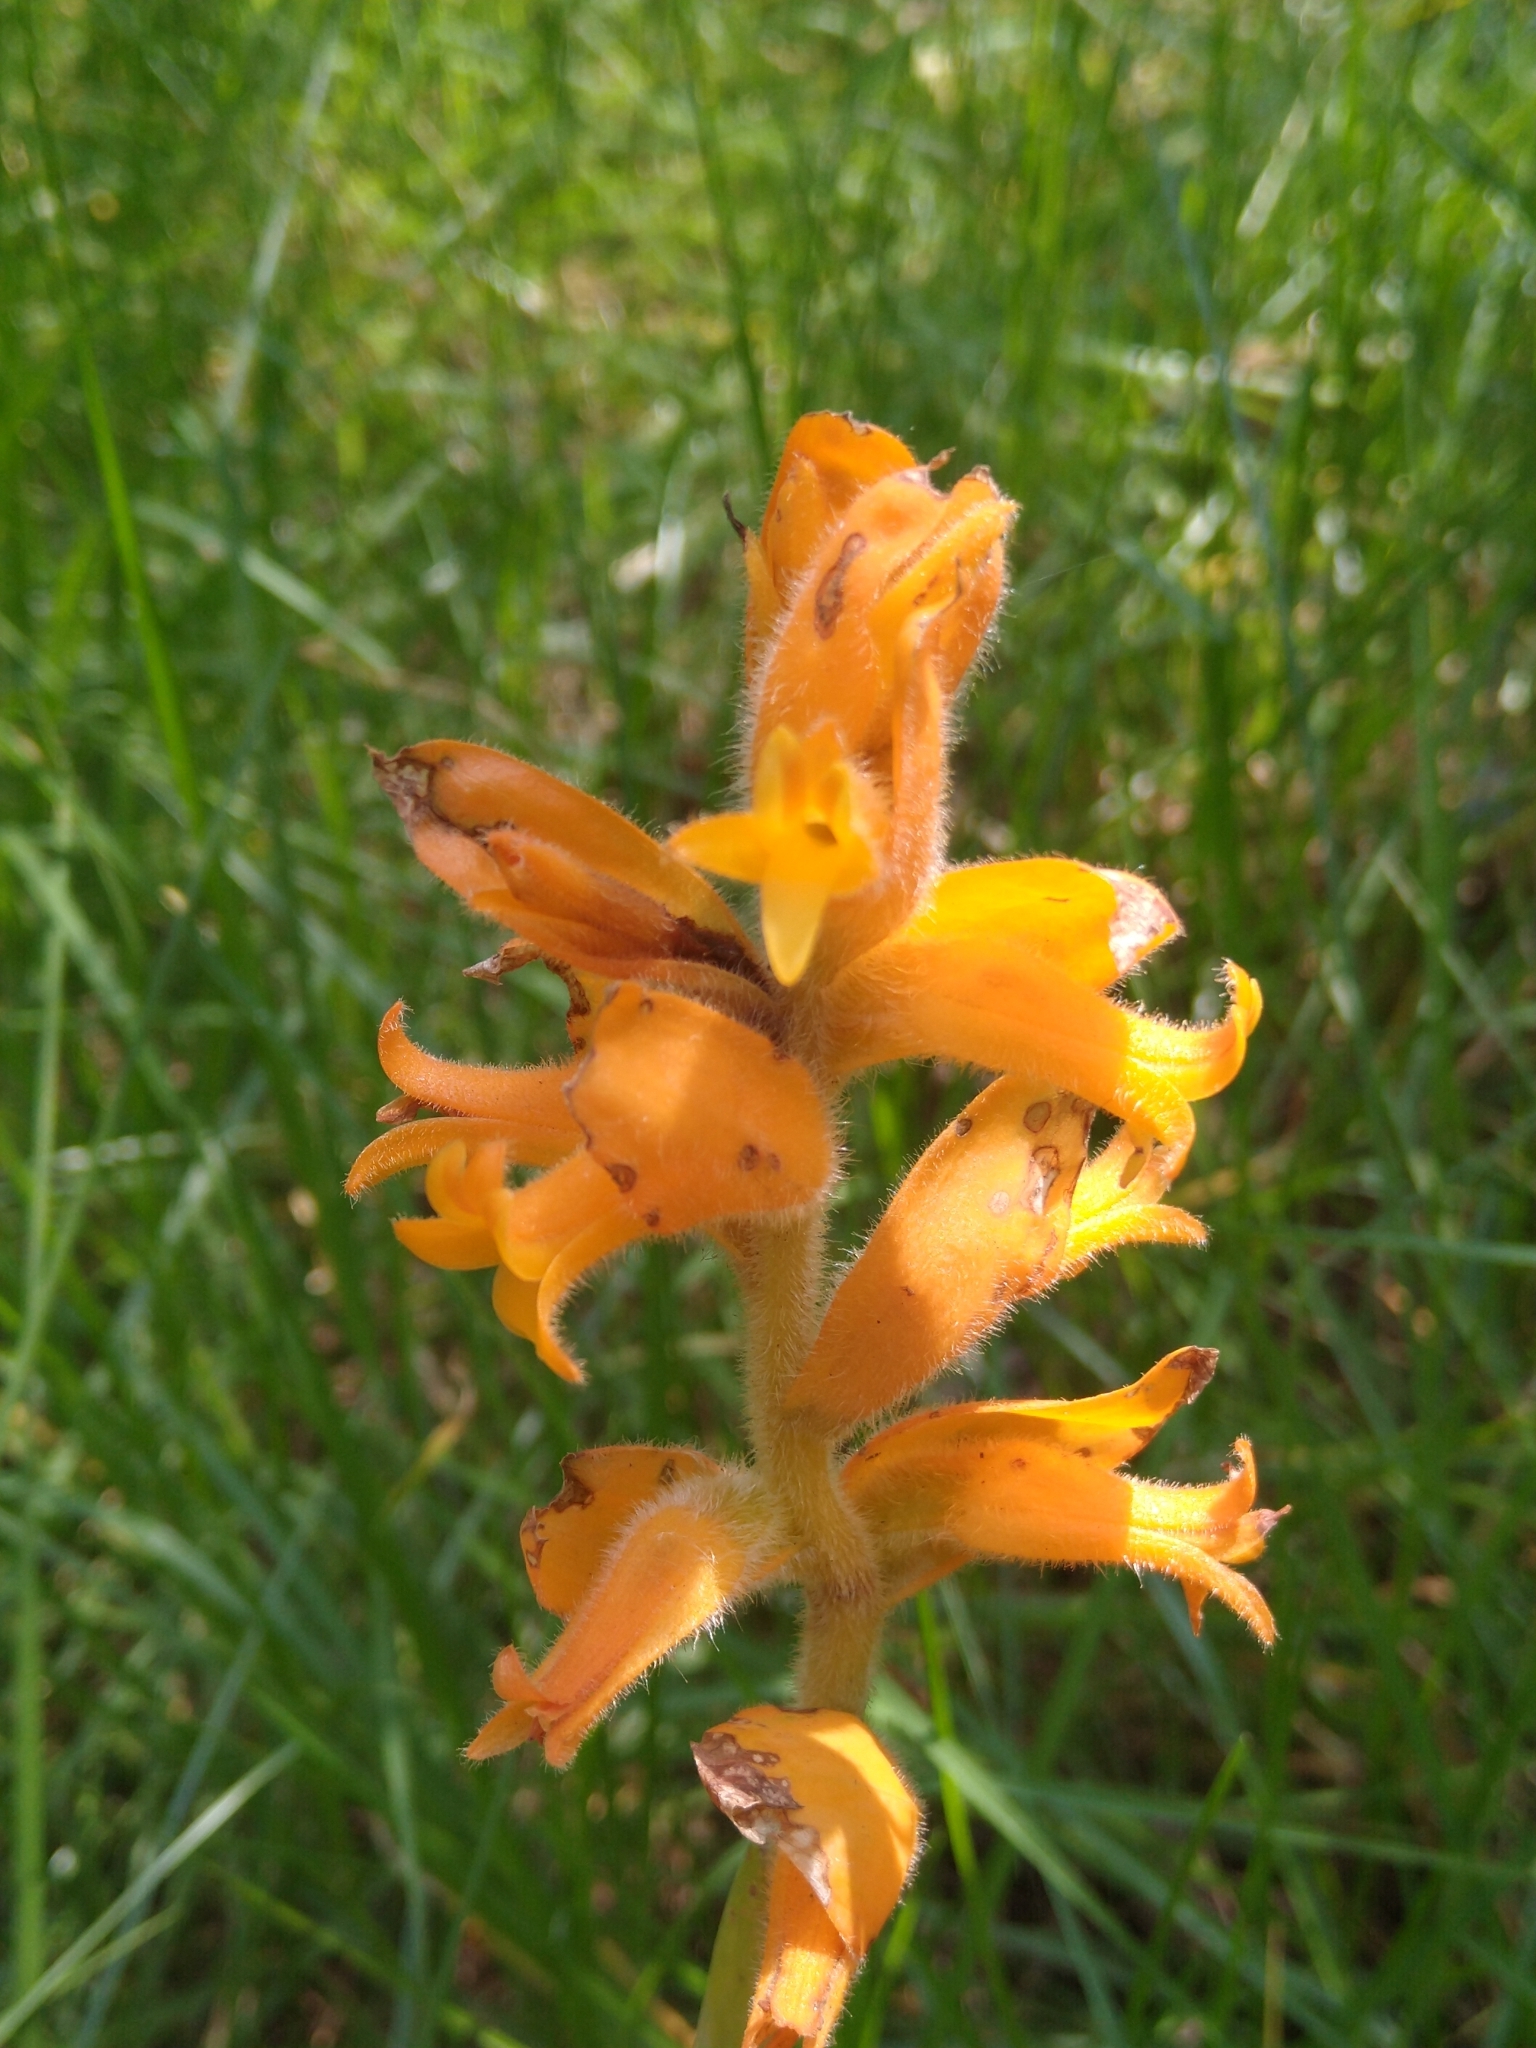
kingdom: Plantae
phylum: Tracheophyta
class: Liliopsida
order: Asparagales
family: Orchidaceae
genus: Dichromanthus
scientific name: Dichromanthus aurantiacus
